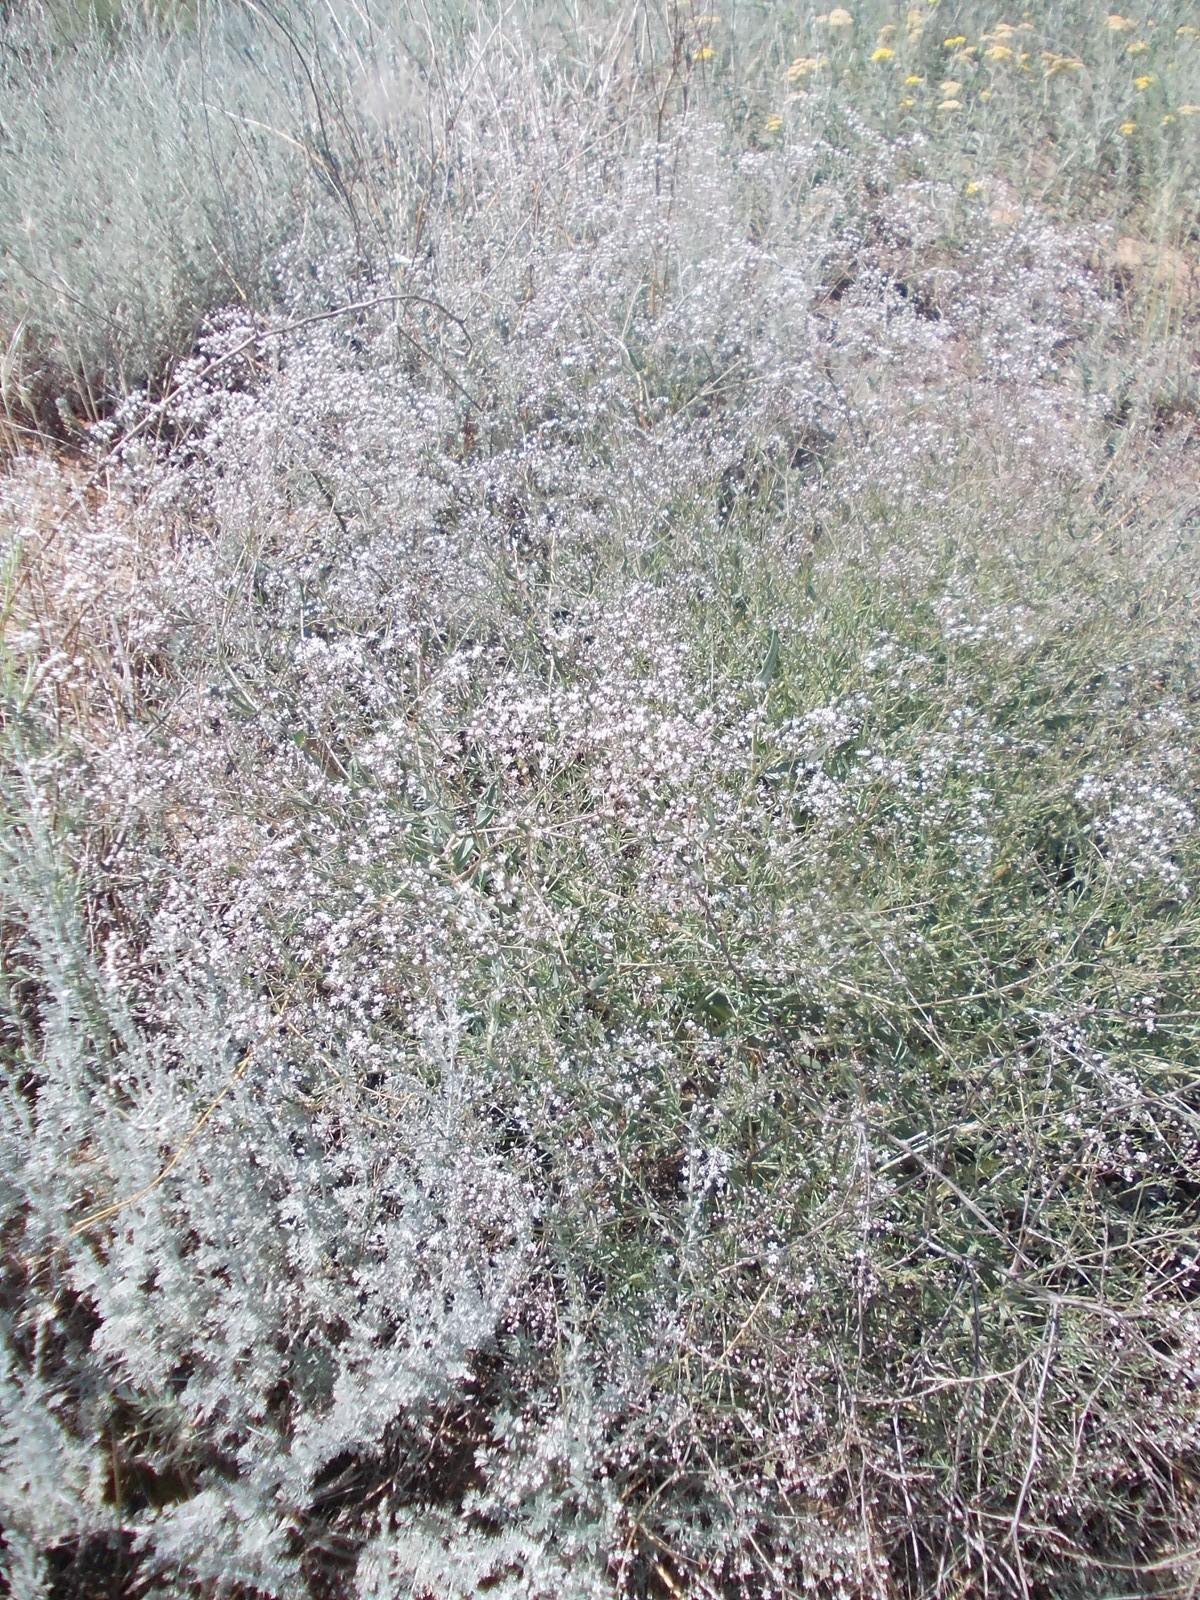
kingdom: Plantae
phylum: Tracheophyta
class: Magnoliopsida
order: Caryophyllales
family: Caryophyllaceae
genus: Gypsophila
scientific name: Gypsophila paniculata
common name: Baby's-breath
